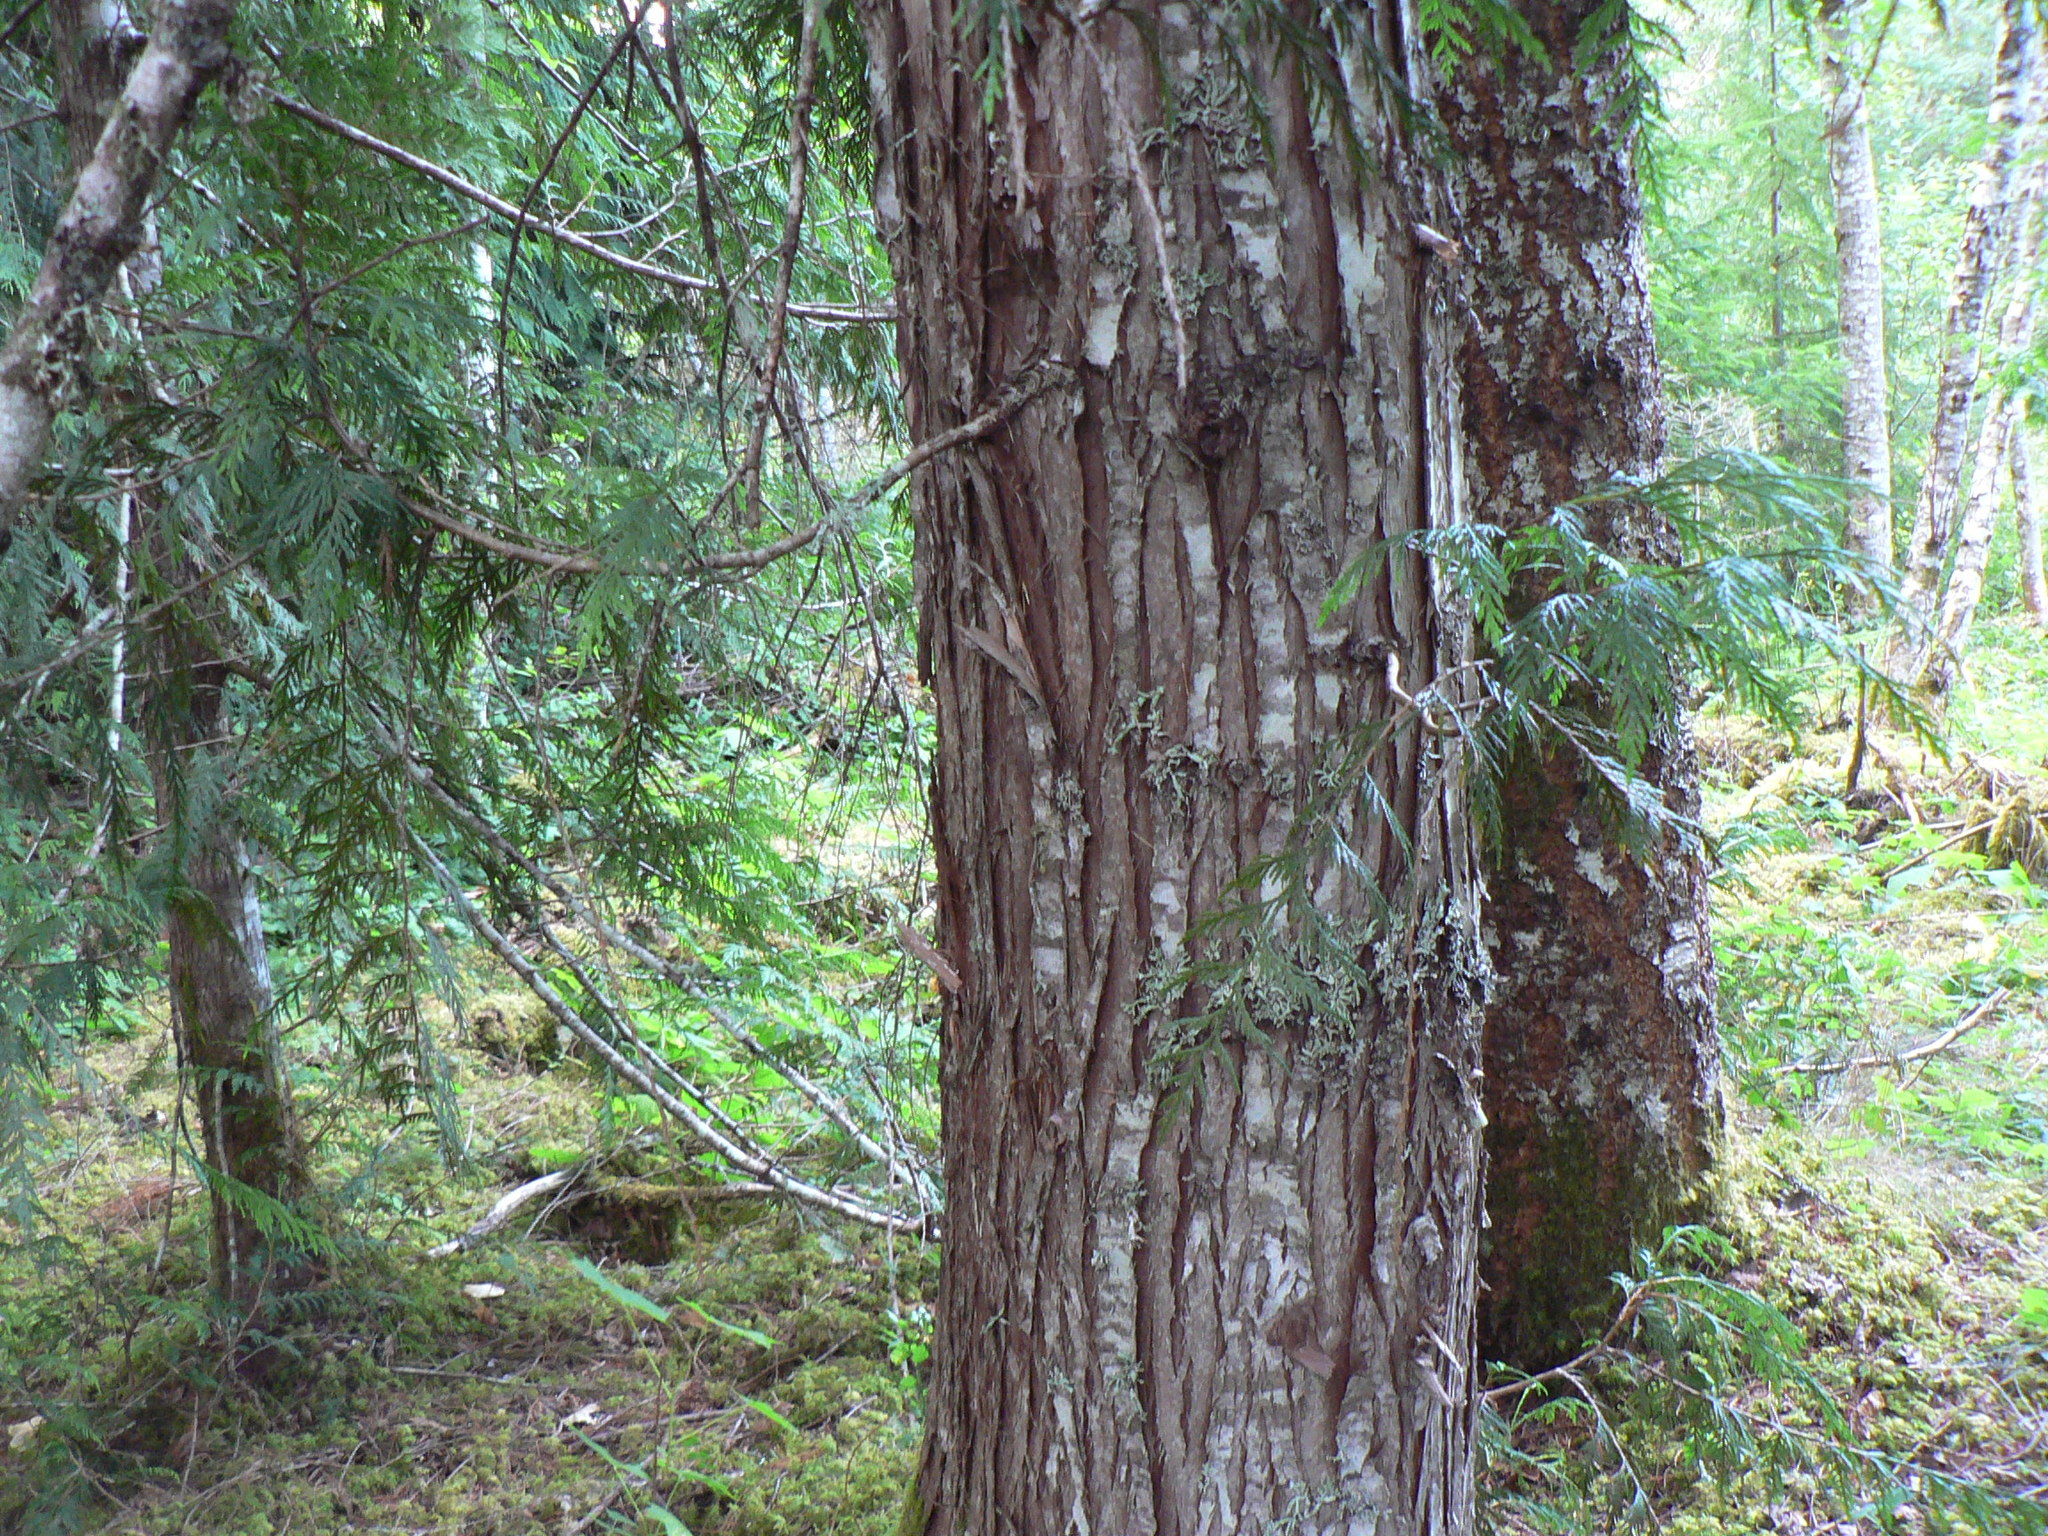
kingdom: Plantae
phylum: Tracheophyta
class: Pinopsida
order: Pinales
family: Cupressaceae
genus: Thuja
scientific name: Thuja plicata
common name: Western red-cedar
